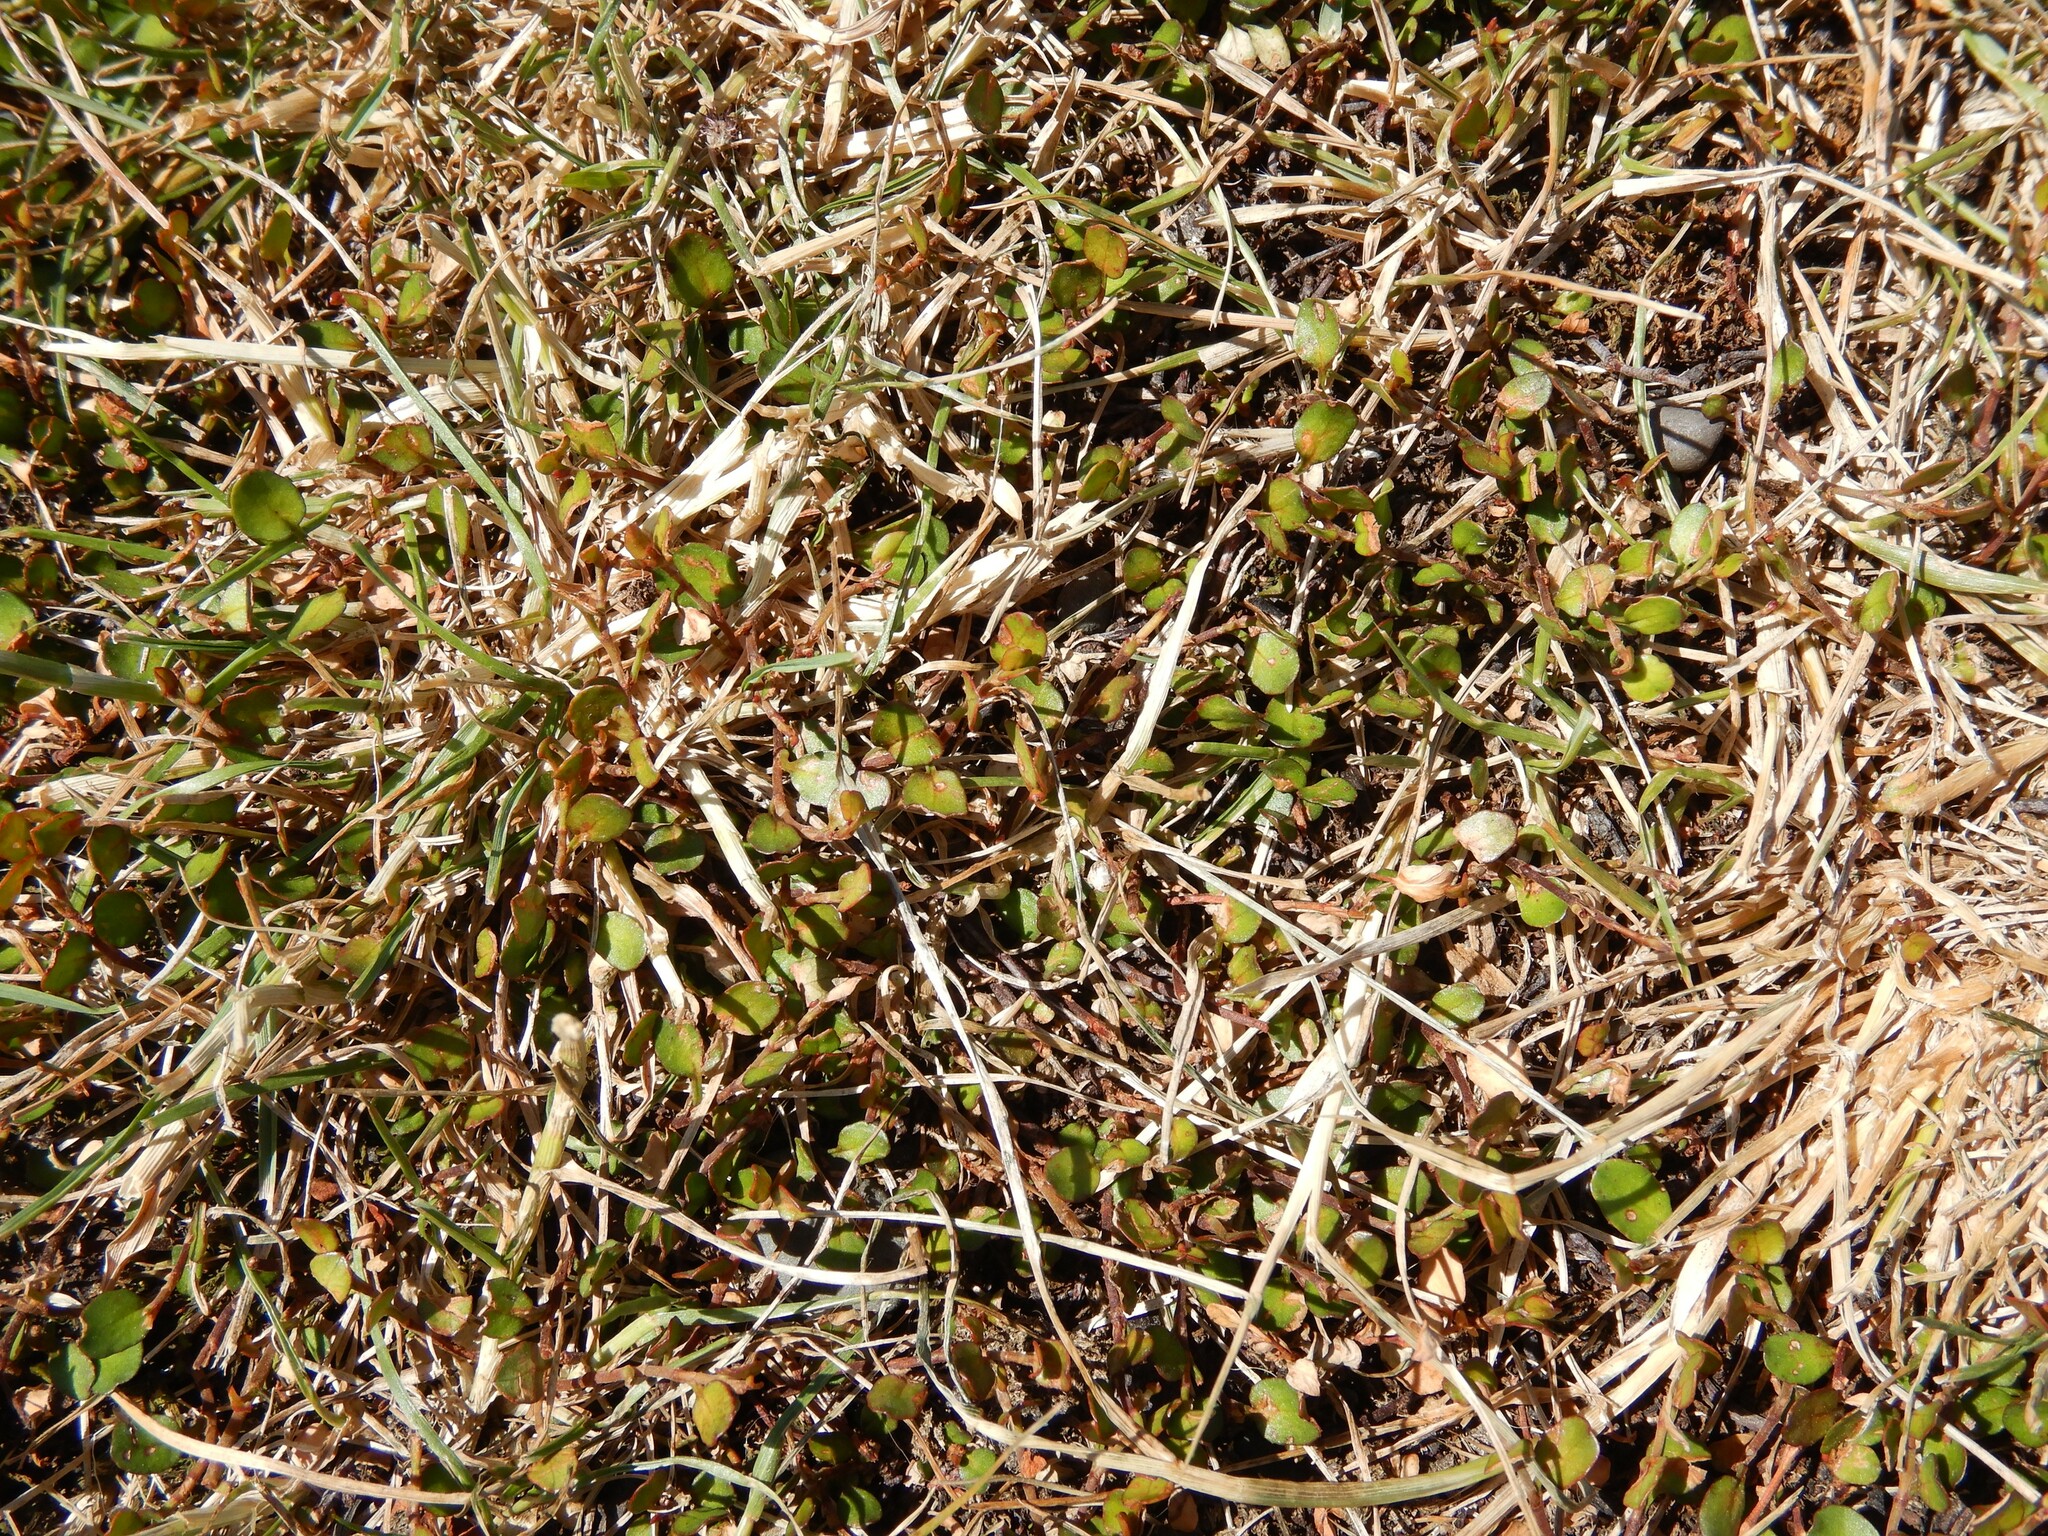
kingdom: Plantae
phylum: Tracheophyta
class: Magnoliopsida
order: Caryophyllales
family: Polygonaceae
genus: Muehlenbeckia
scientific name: Muehlenbeckia axillaris
